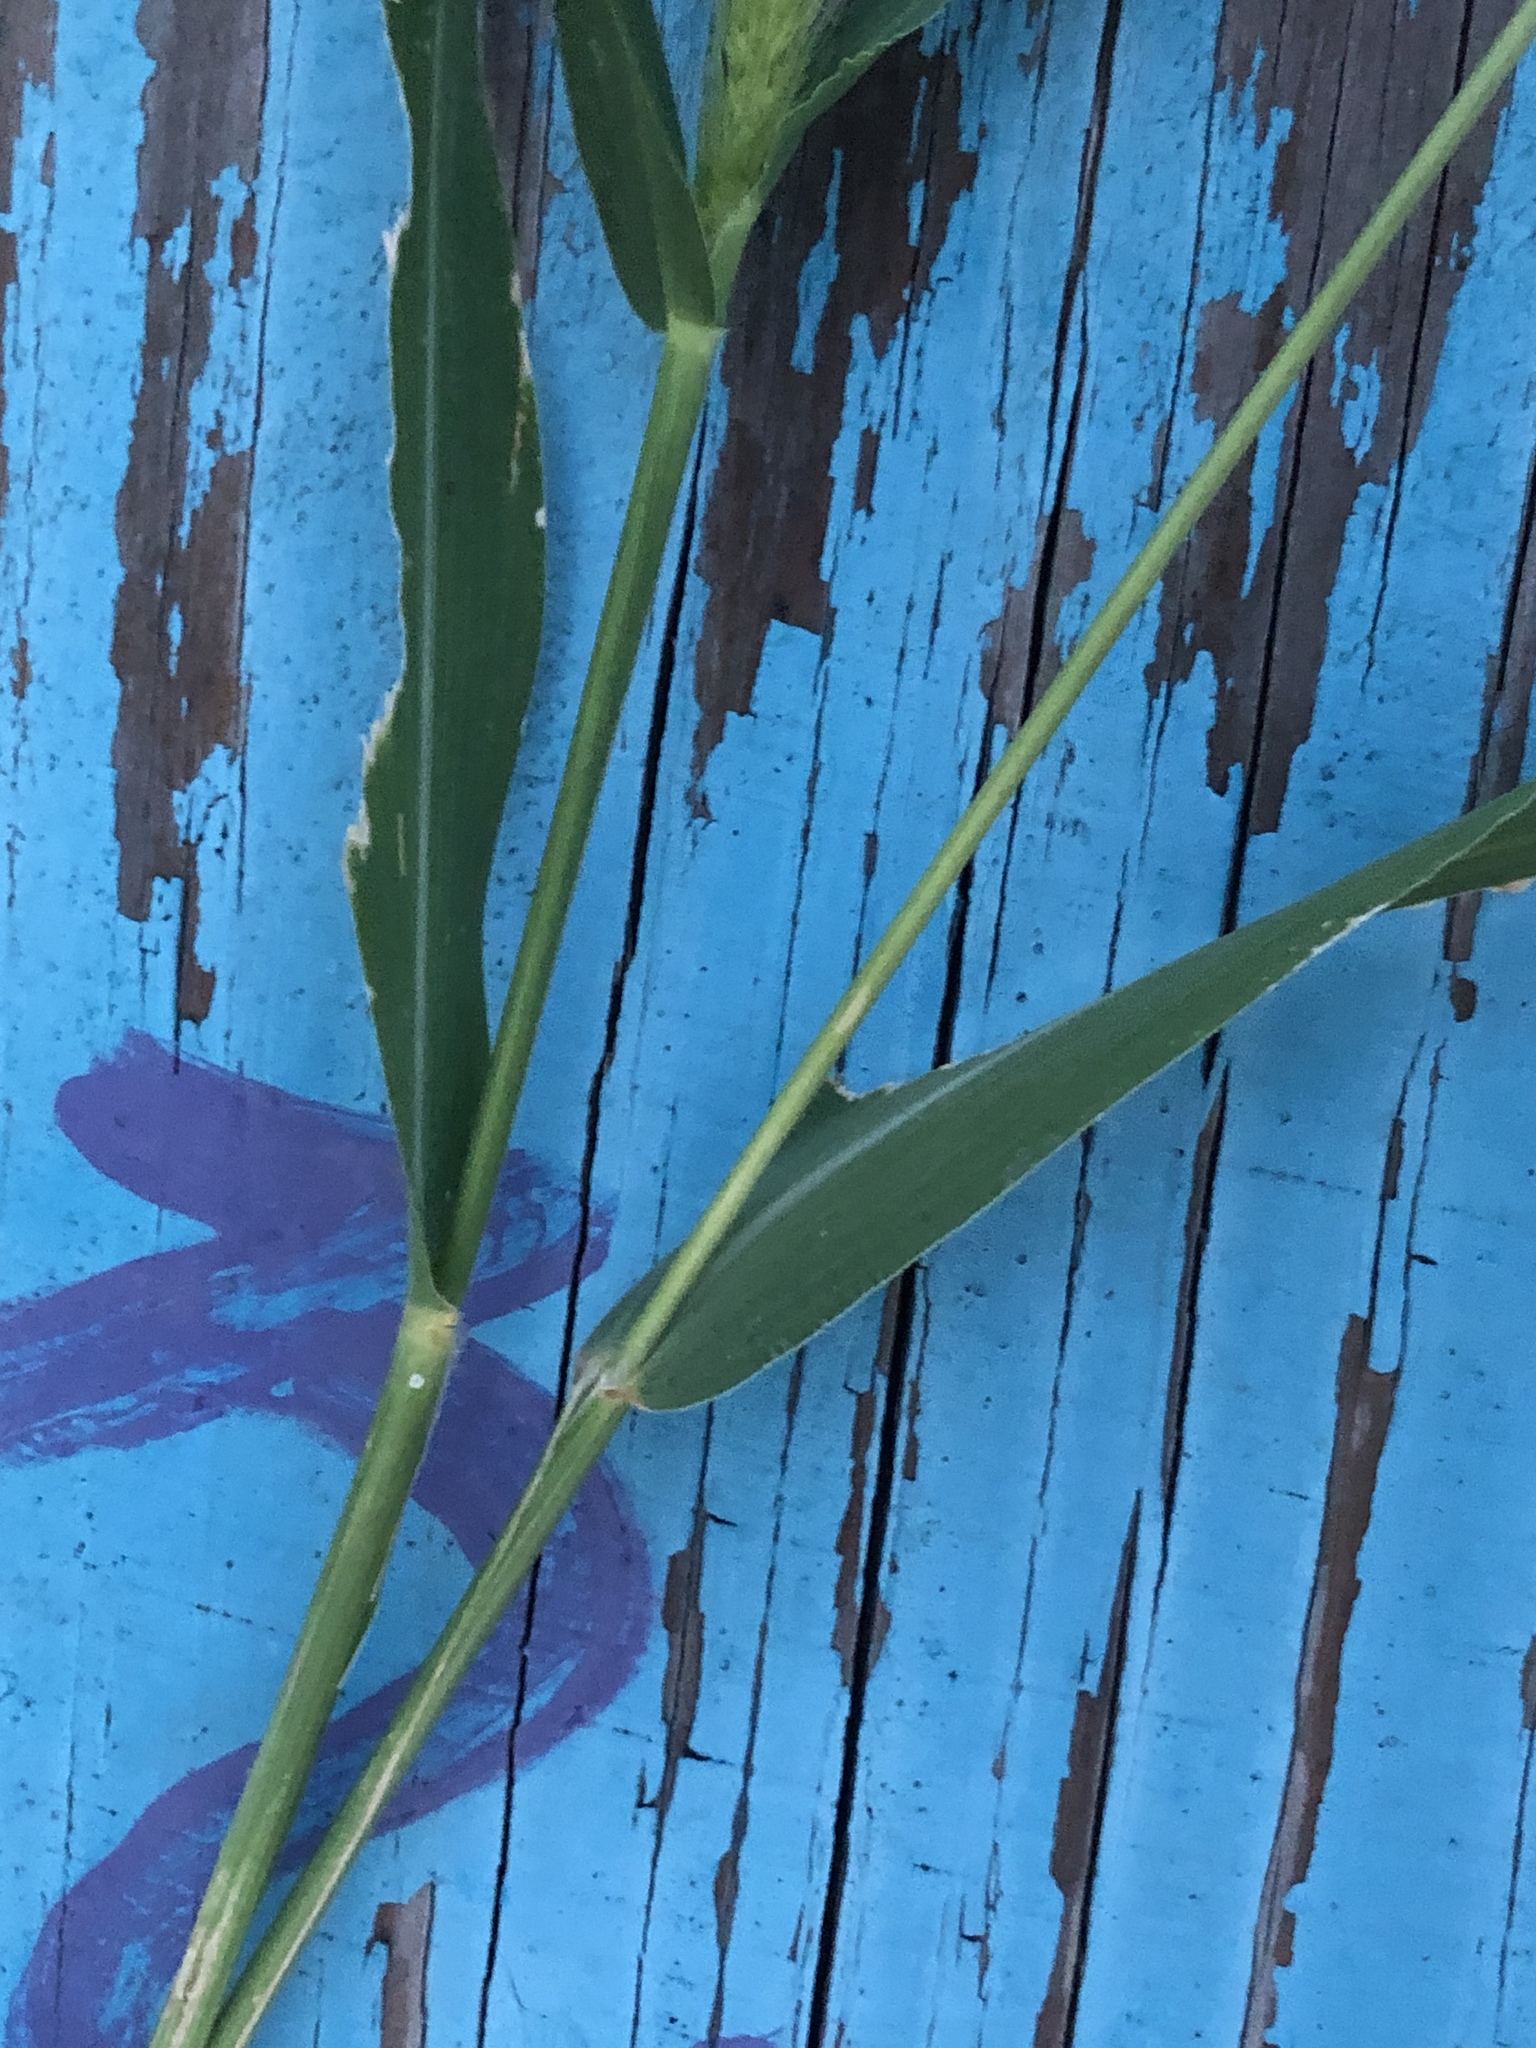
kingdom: Plantae
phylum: Tracheophyta
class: Liliopsida
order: Poales
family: Poaceae
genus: Setaria
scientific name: Setaria viridis
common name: Green bristlegrass
